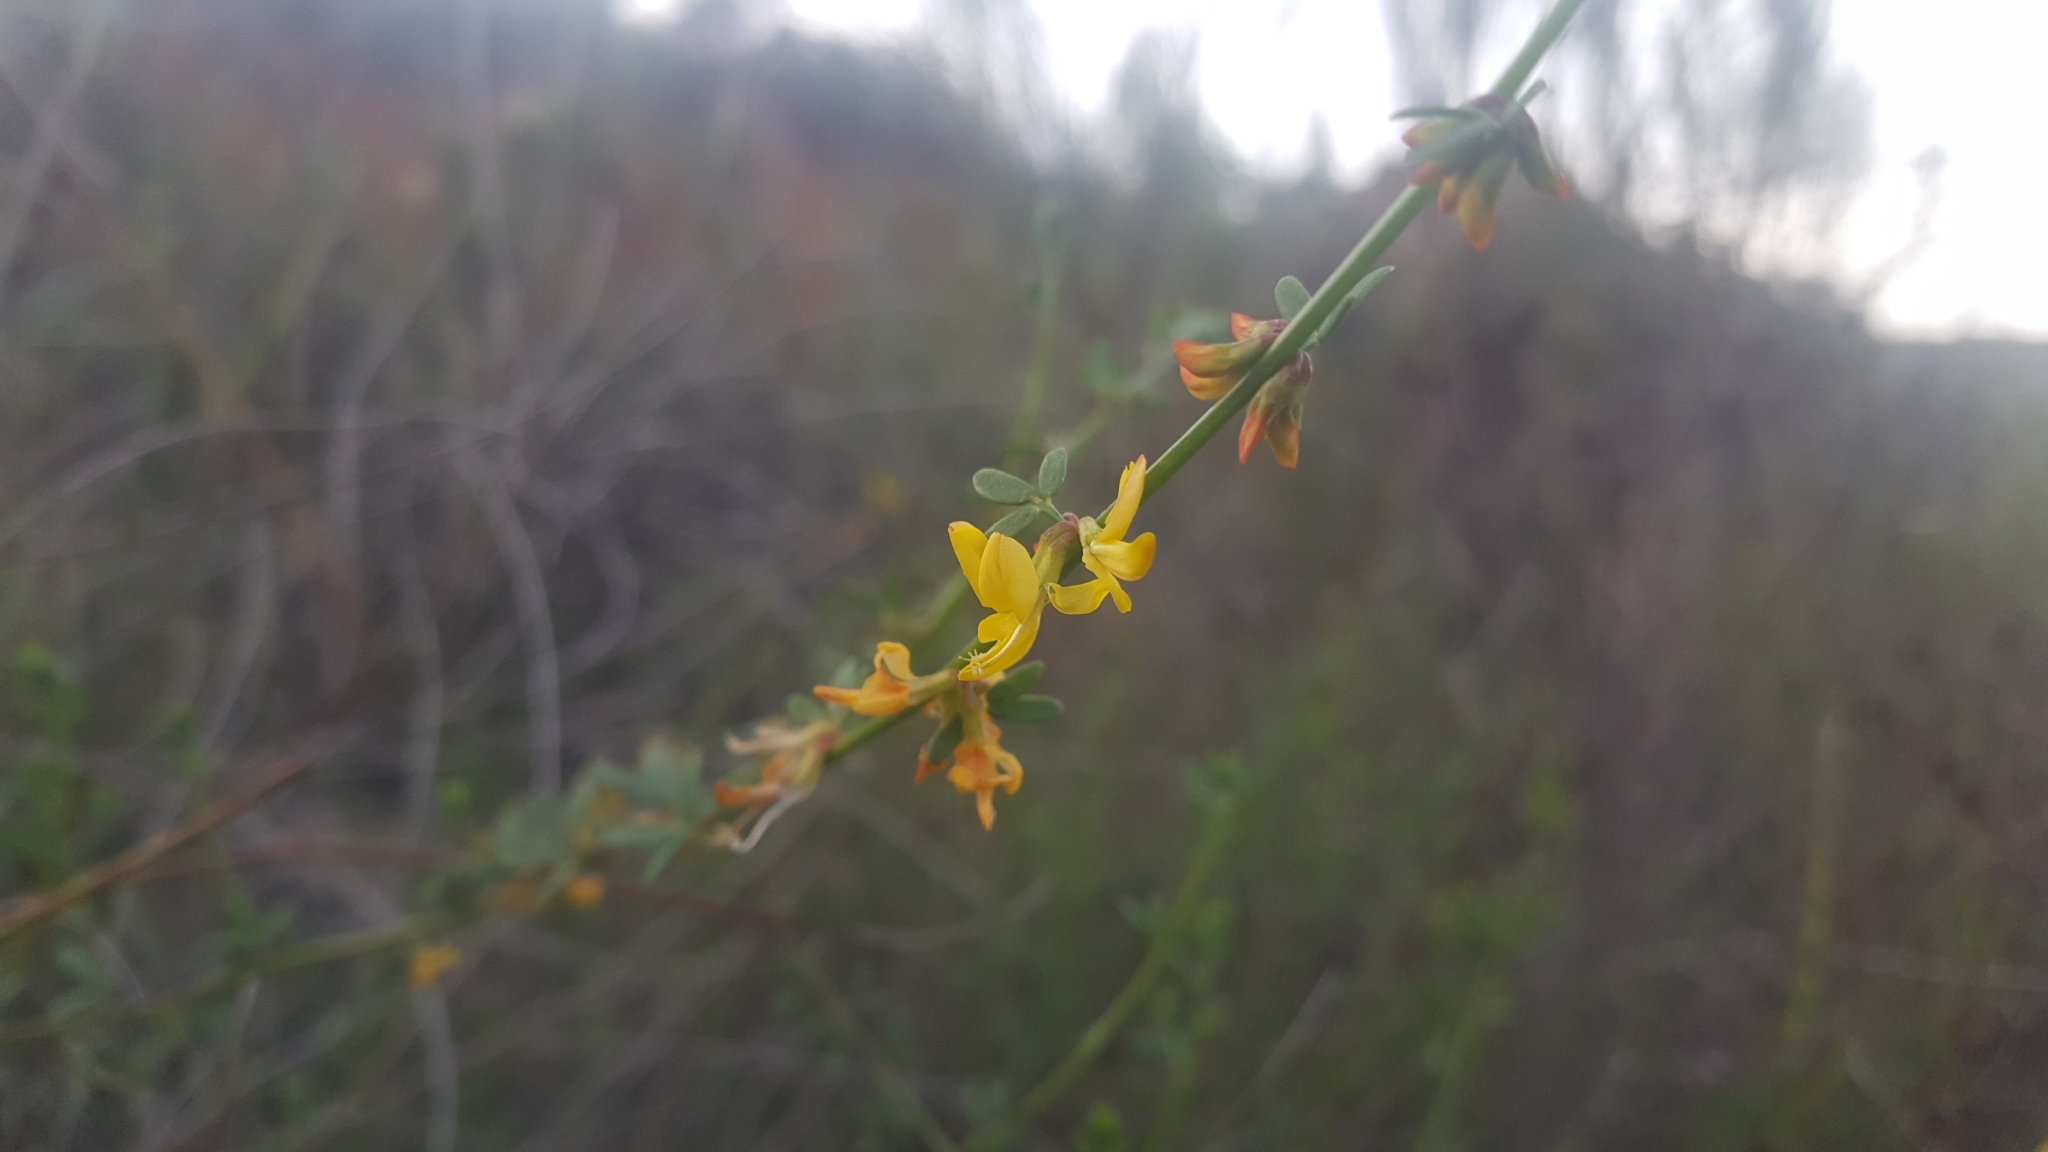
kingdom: Plantae
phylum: Tracheophyta
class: Magnoliopsida
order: Fabales
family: Fabaceae
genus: Acmispon
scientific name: Acmispon glaber
